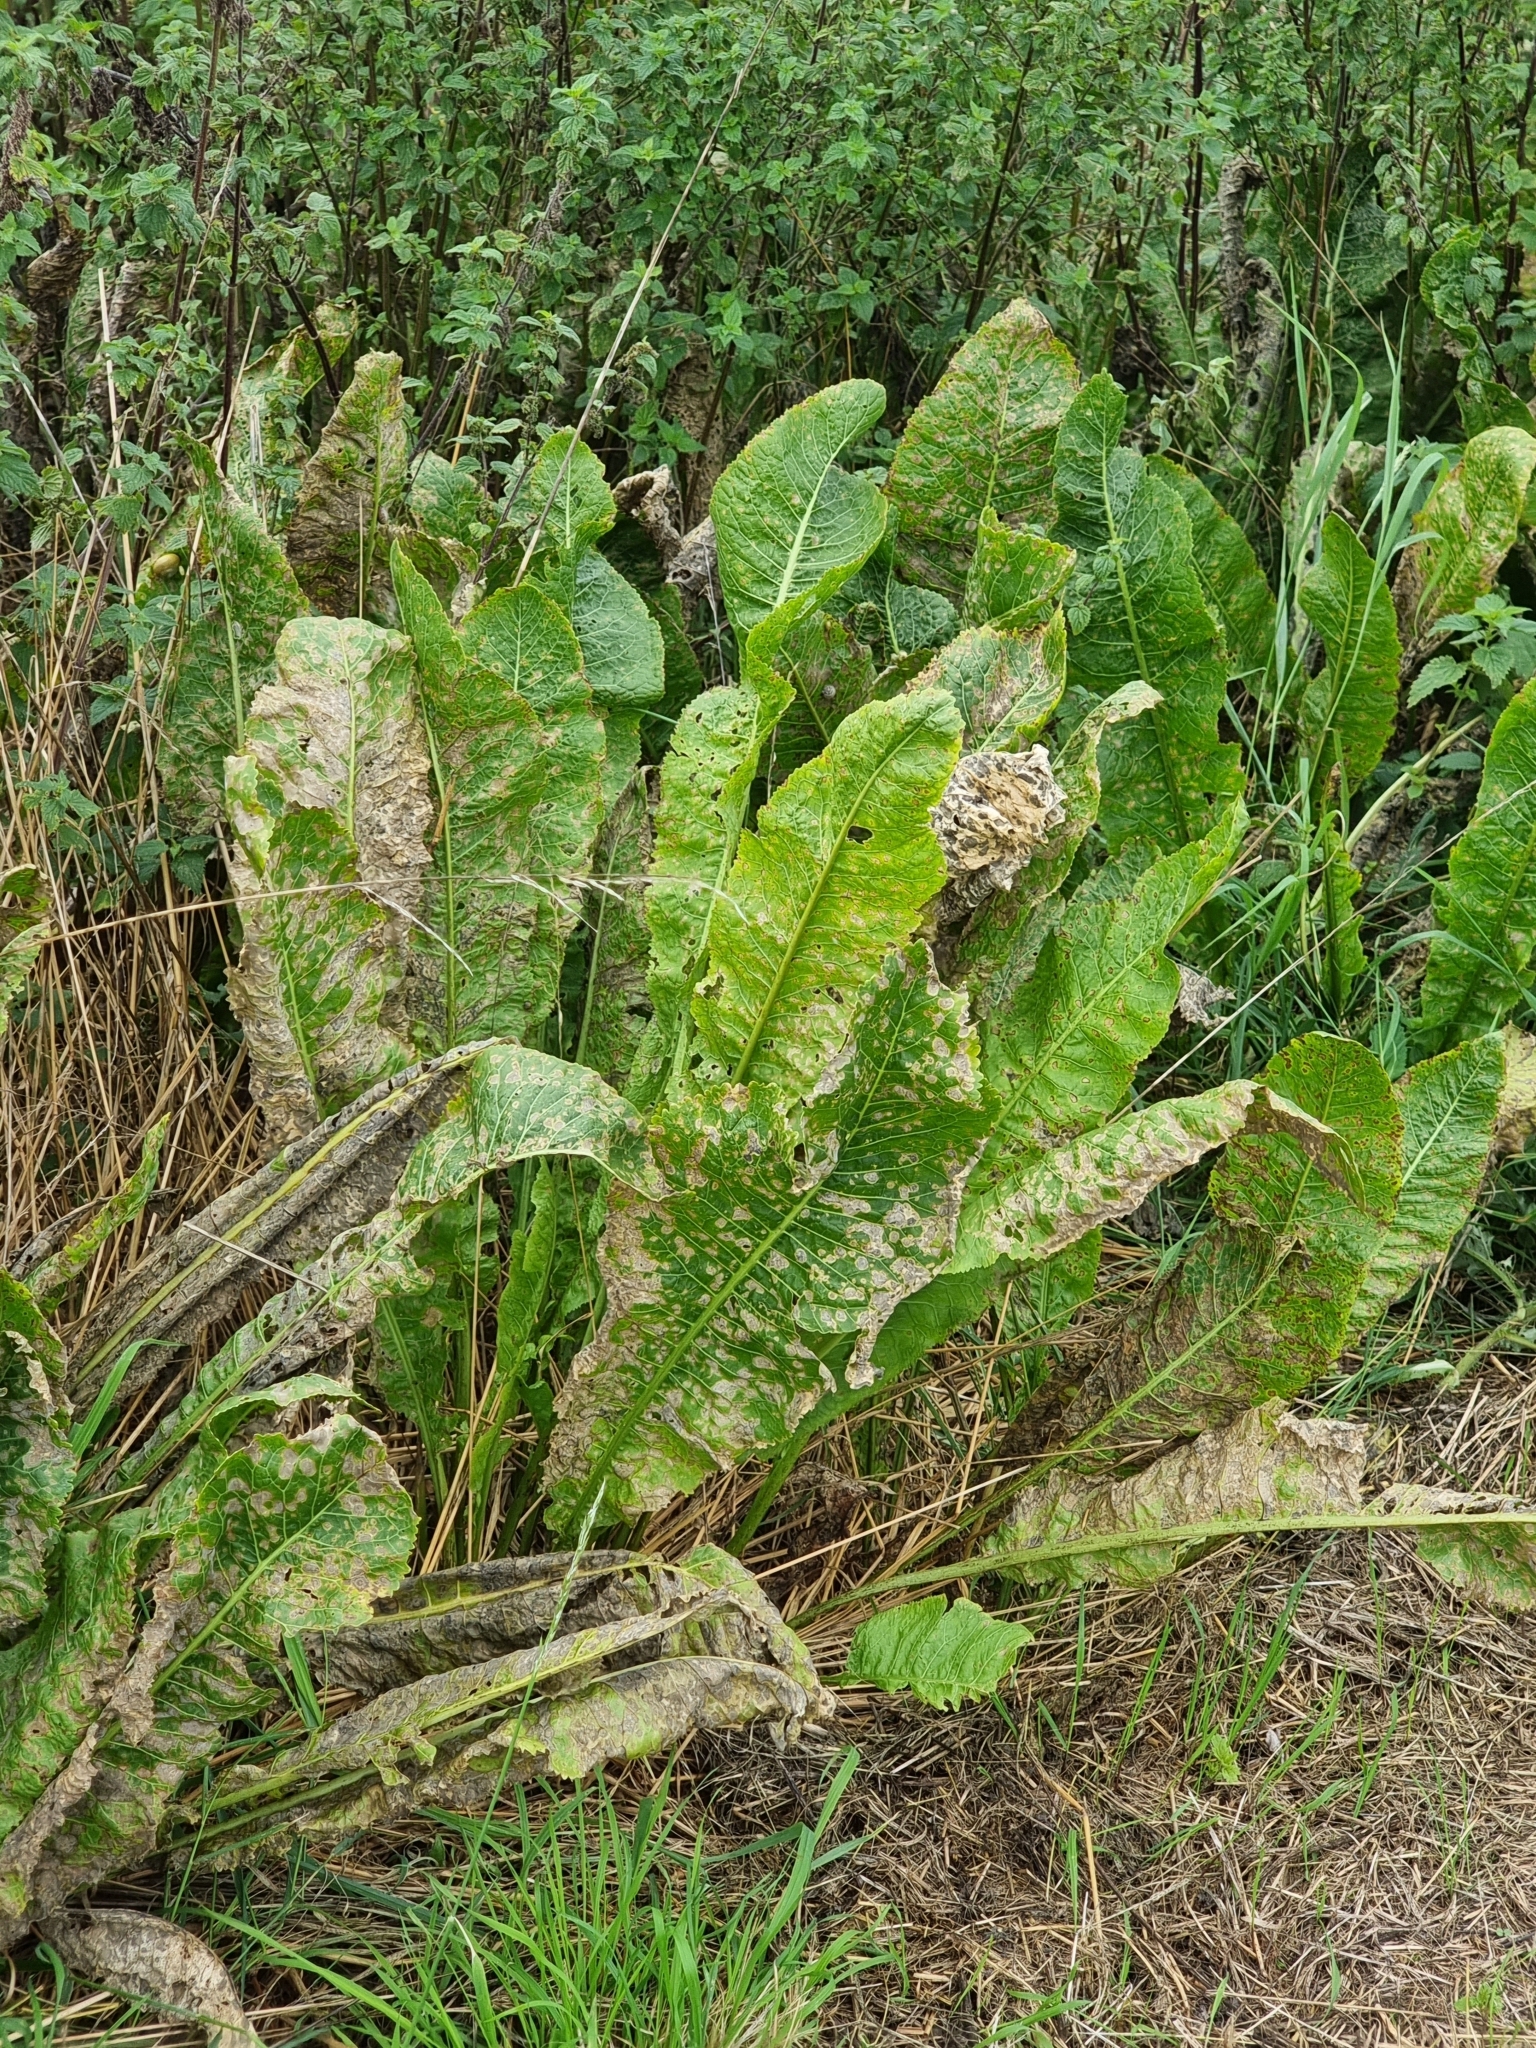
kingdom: Plantae
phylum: Tracheophyta
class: Magnoliopsida
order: Brassicales
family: Brassicaceae
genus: Armoracia
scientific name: Armoracia rusticana
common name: Horseradish
